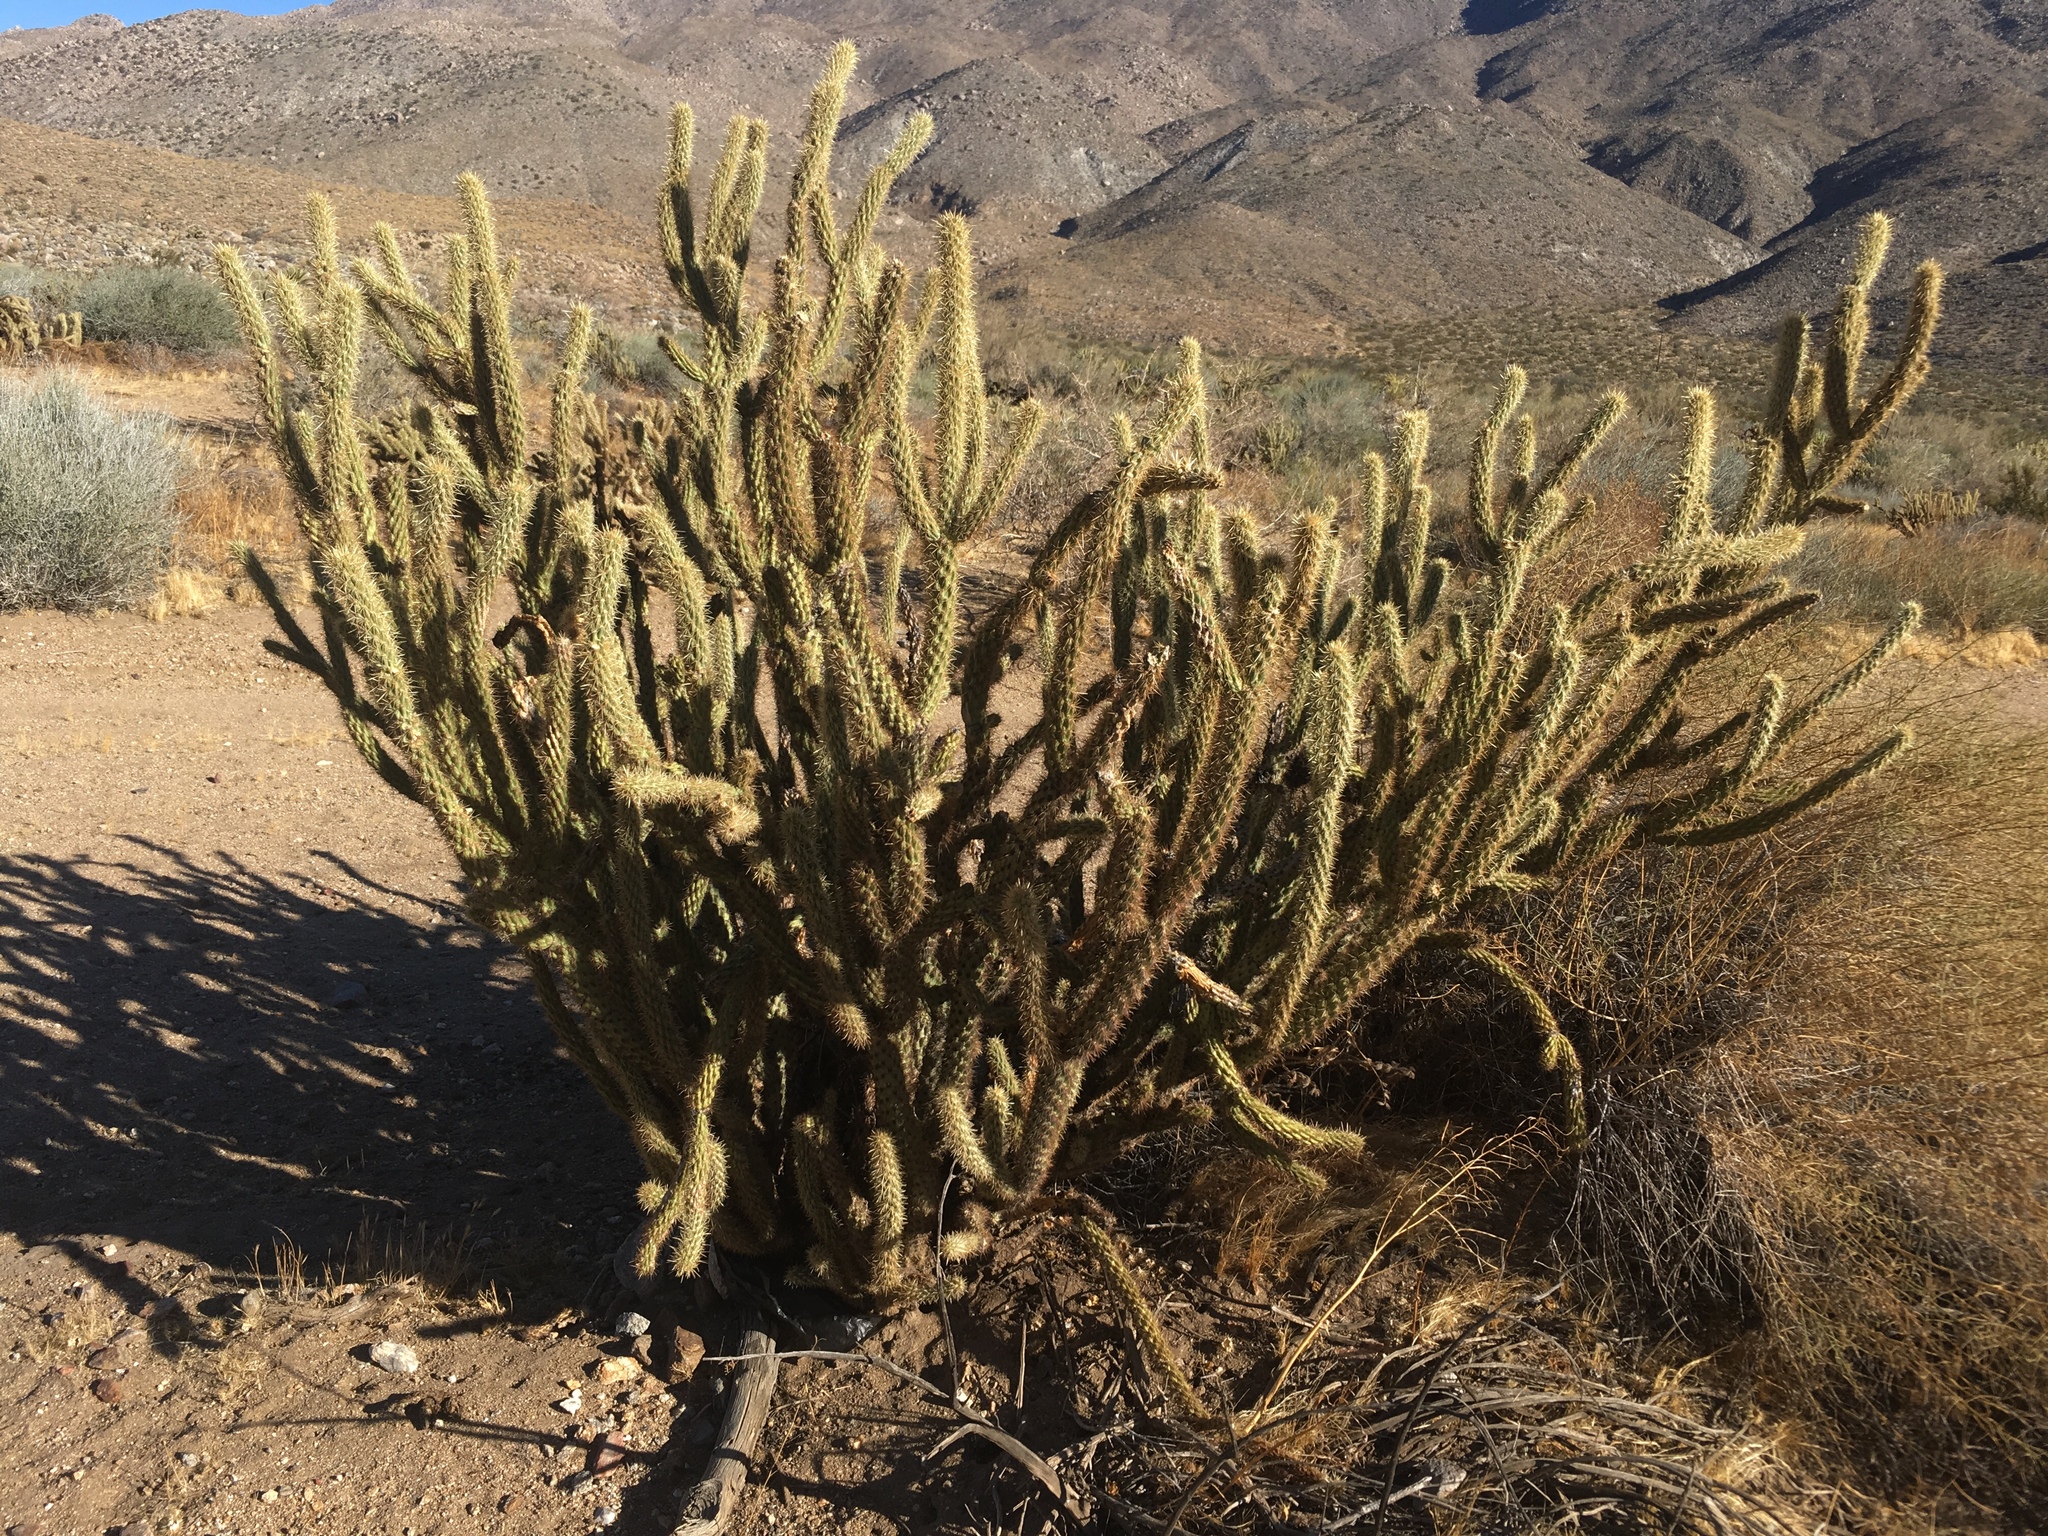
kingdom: Plantae
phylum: Tracheophyta
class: Magnoliopsida
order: Caryophyllales
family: Cactaceae
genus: Cylindropuntia
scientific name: Cylindropuntia ganderi
